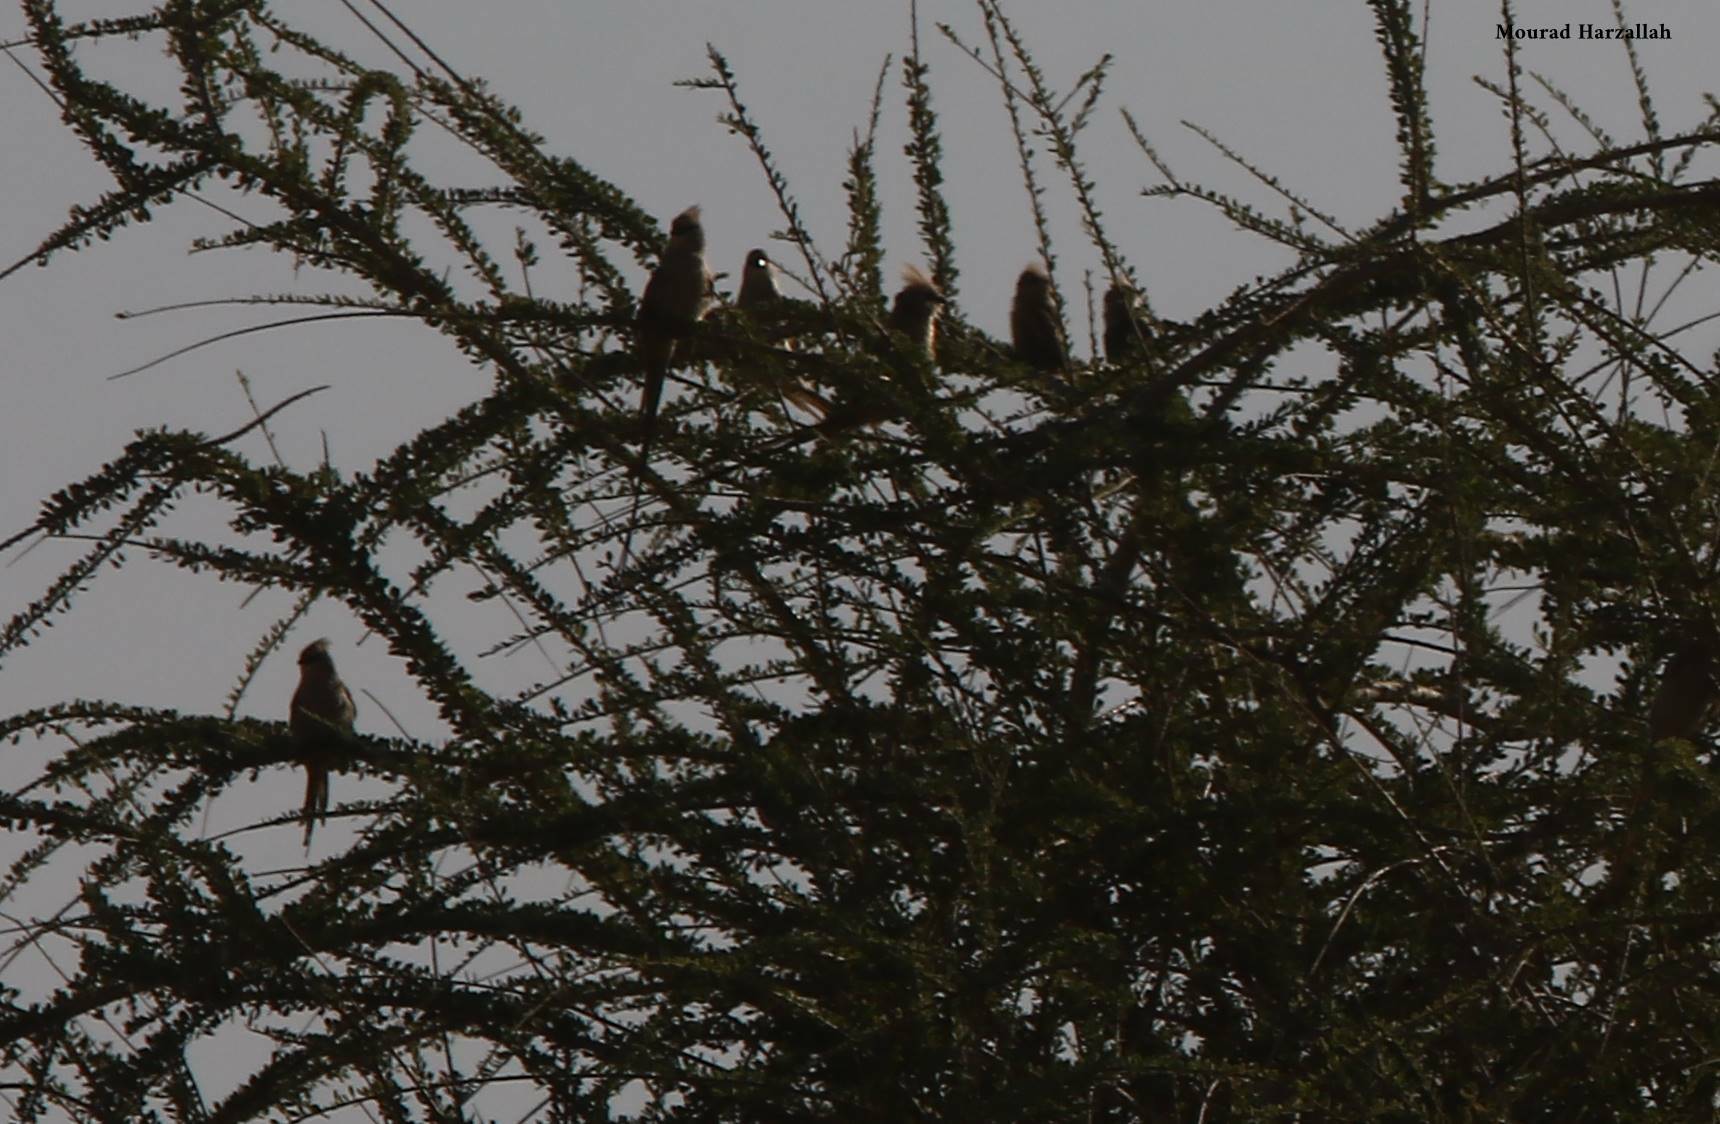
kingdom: Animalia
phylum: Chordata
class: Aves
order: Coliiformes
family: Coliidae
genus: Urocolius
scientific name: Urocolius macrourus
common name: Blue-naped mousebird
